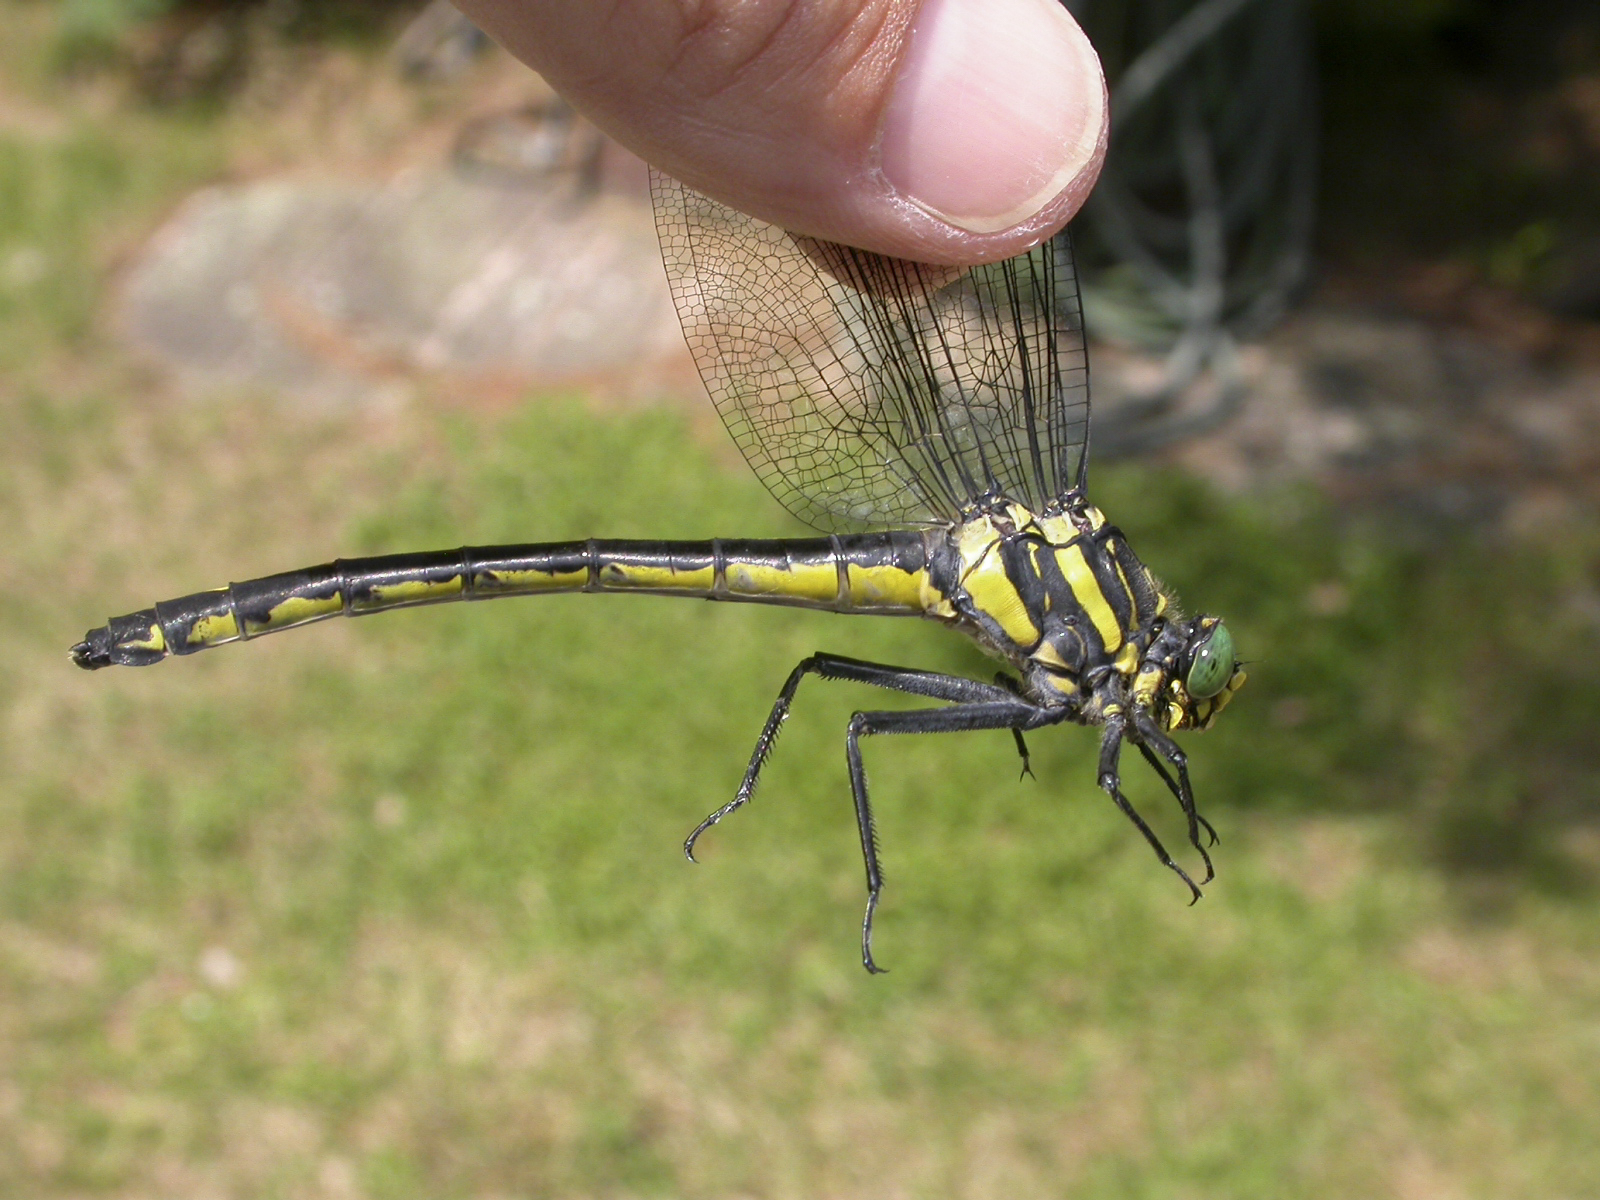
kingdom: Animalia
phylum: Arthropoda
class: Insecta
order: Odonata
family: Gomphidae
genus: Hagenius
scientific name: Hagenius brevistylus
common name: Dragonhunter
